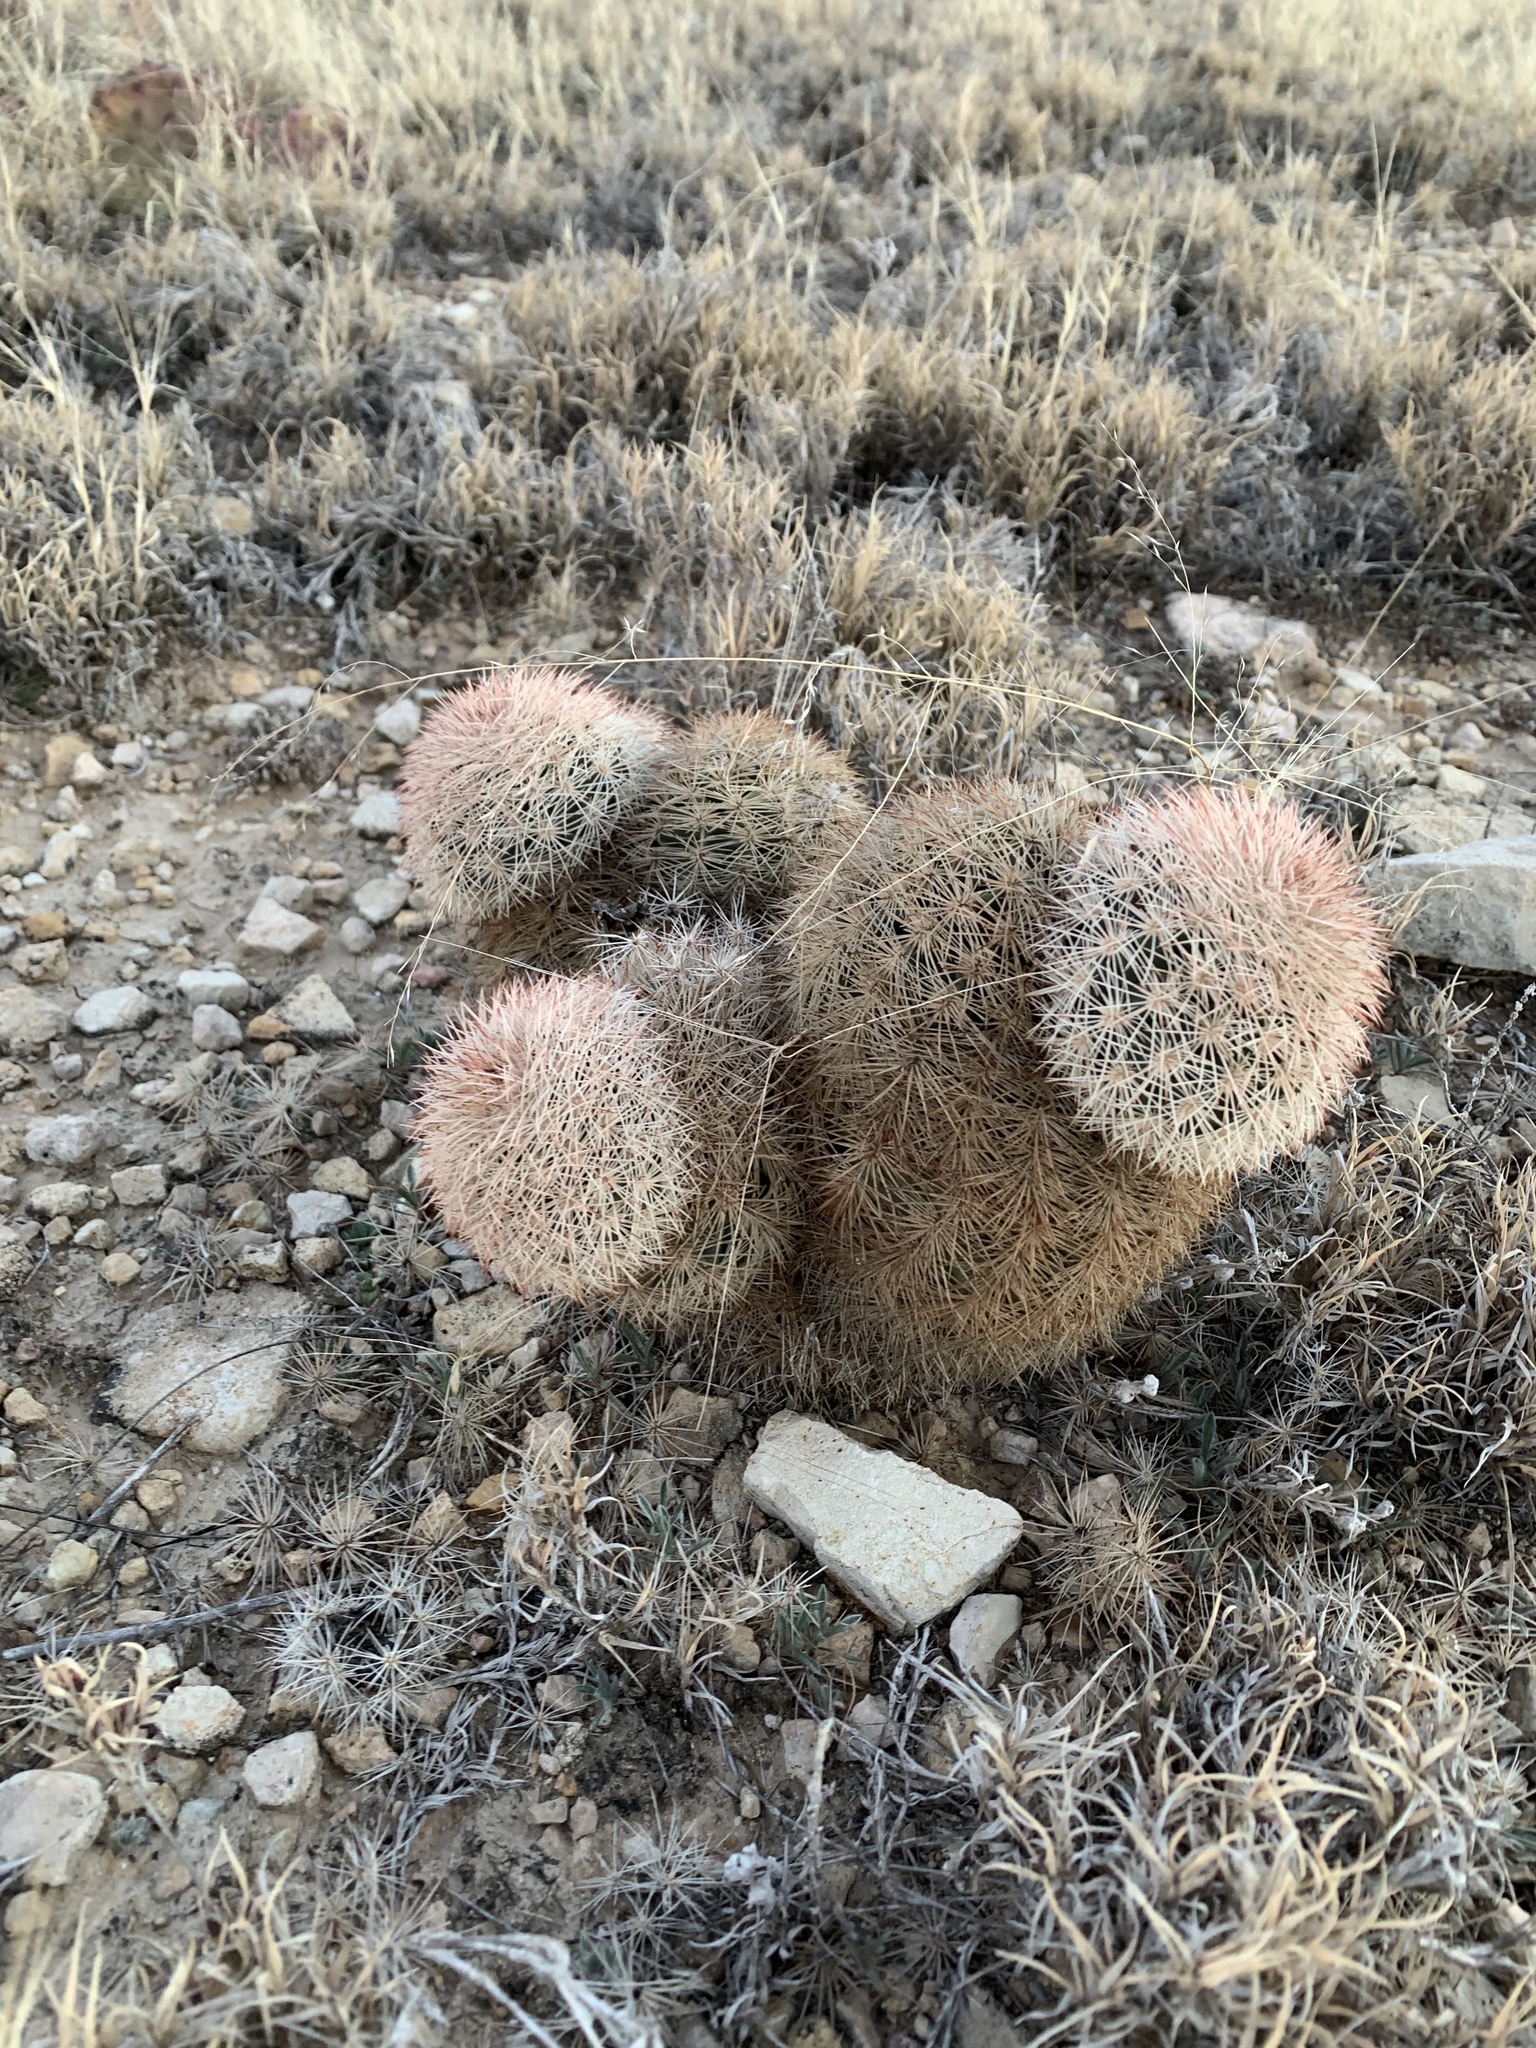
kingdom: Plantae
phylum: Tracheophyta
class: Magnoliopsida
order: Caryophyllales
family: Cactaceae
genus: Echinocereus
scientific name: Echinocereus dasyacanthus
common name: Spiny hedgehog cactus
